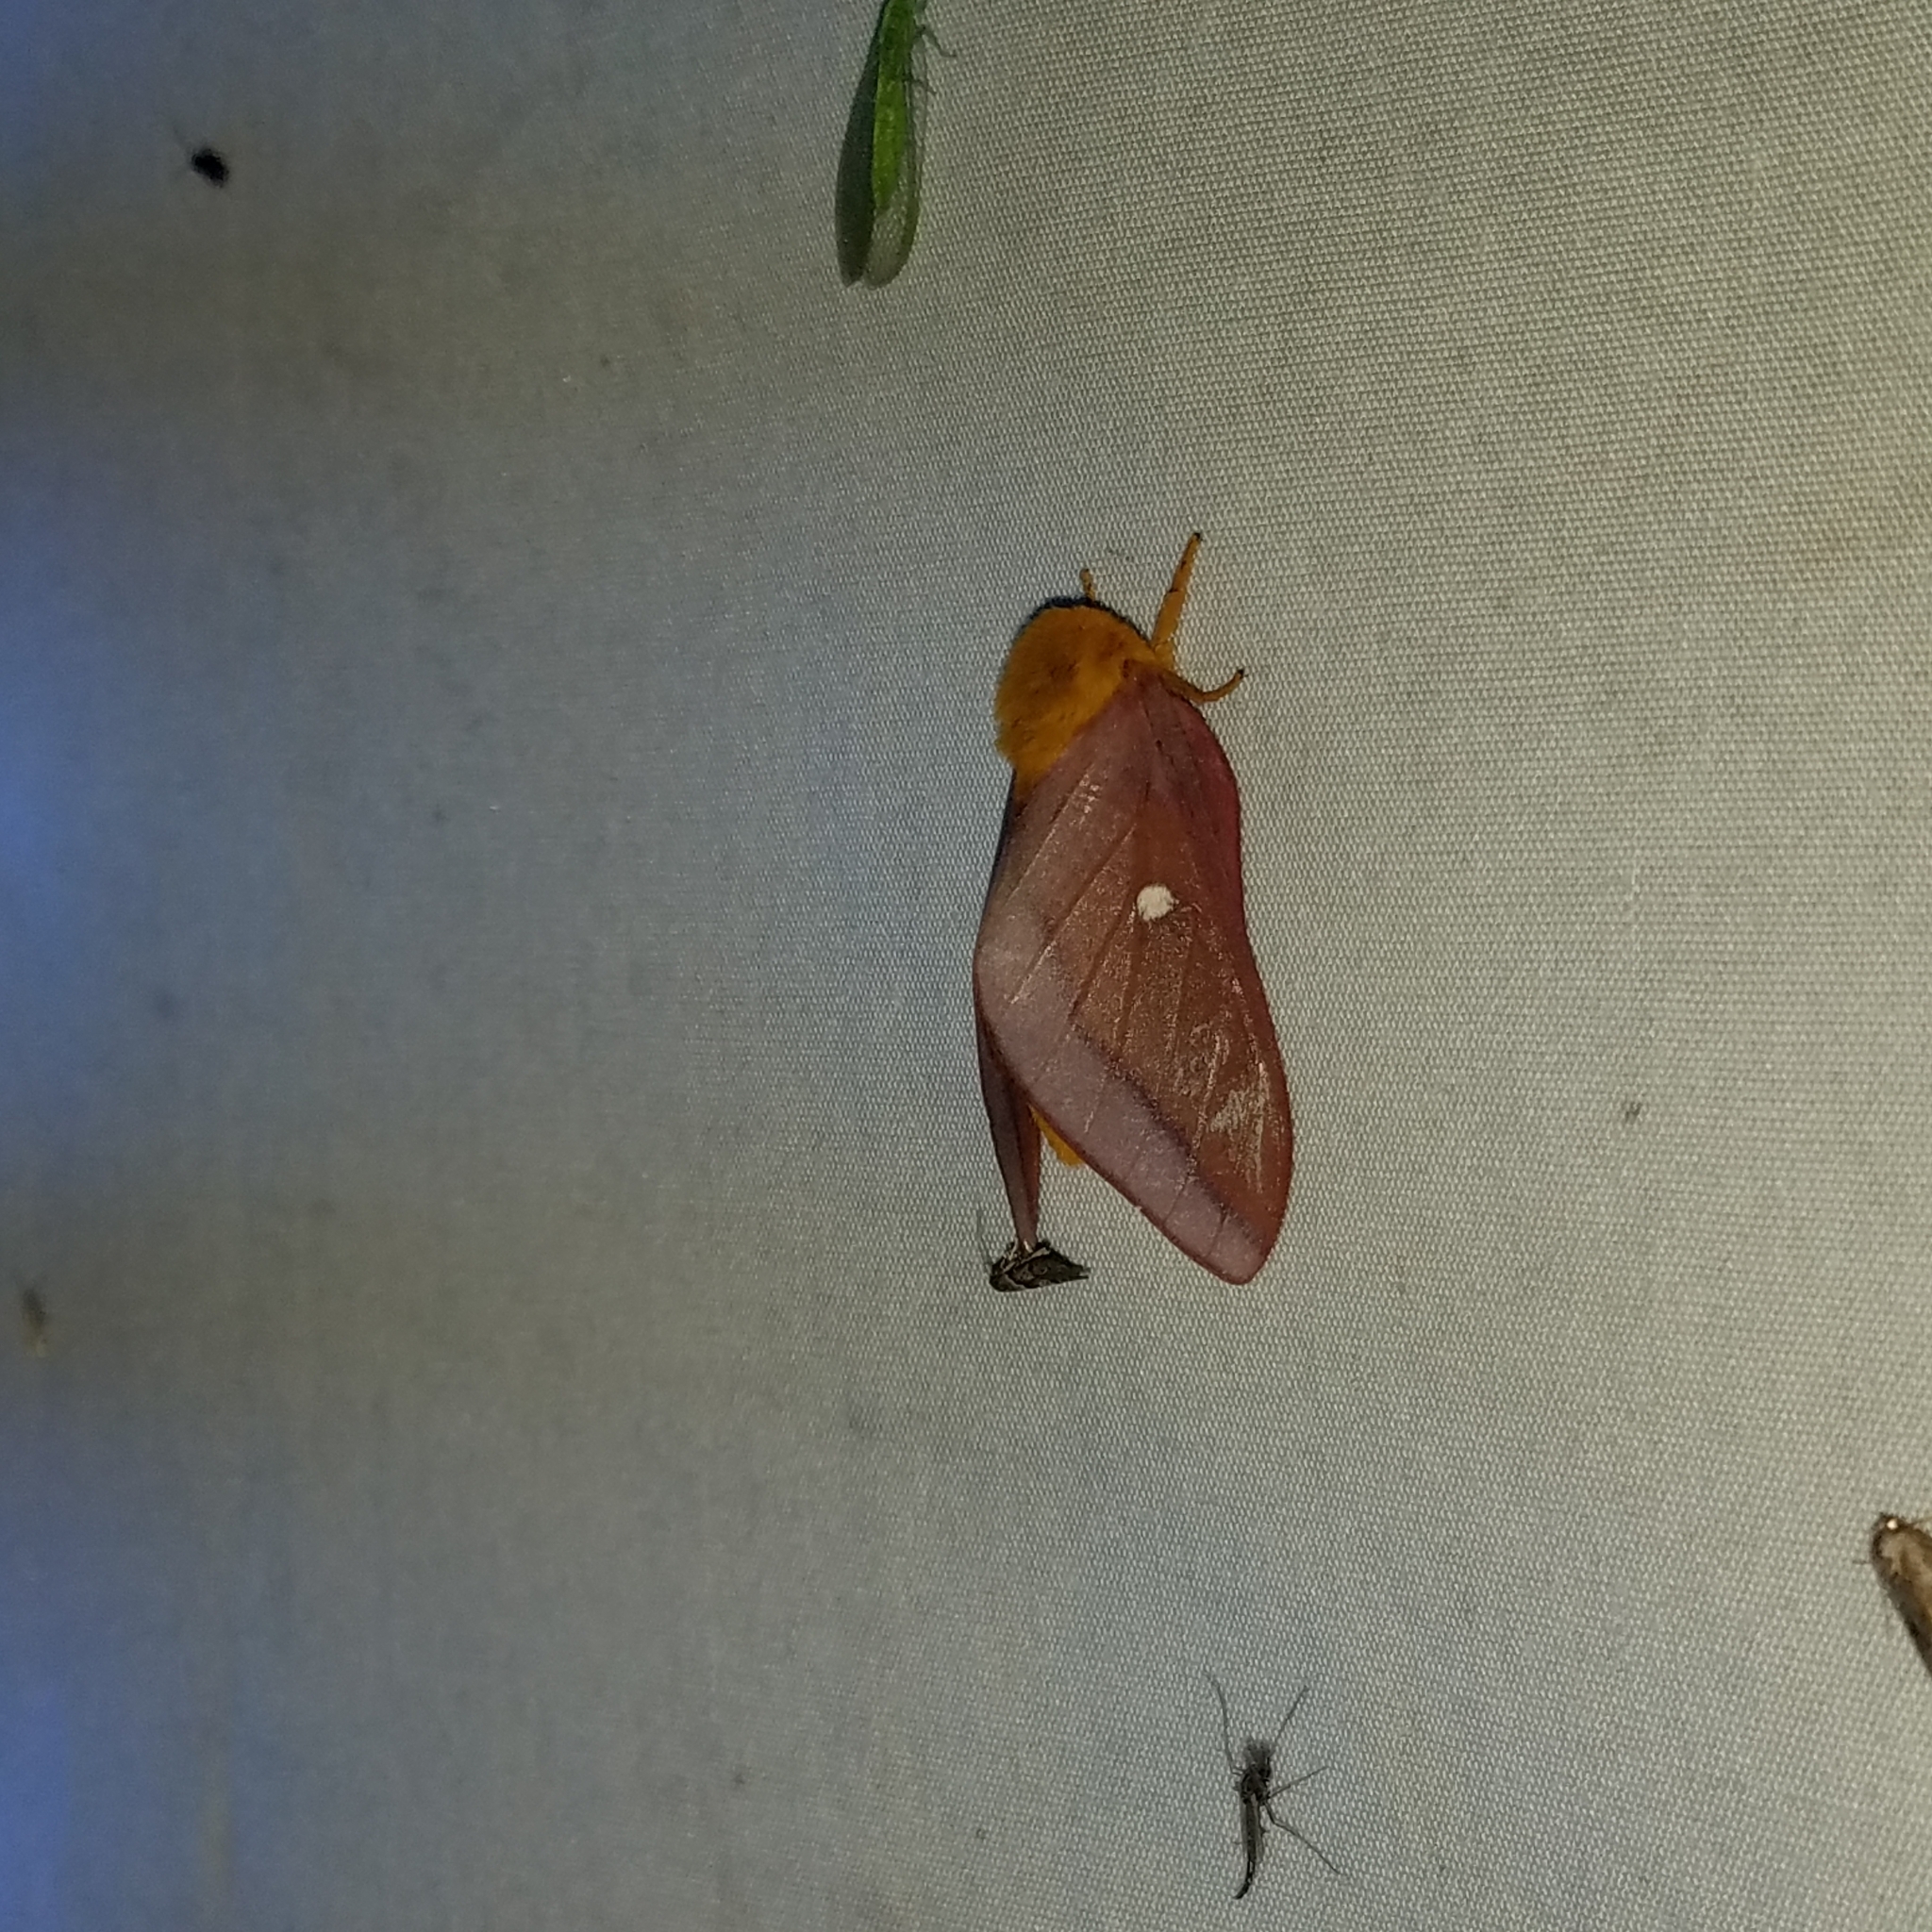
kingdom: Animalia
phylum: Arthropoda
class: Insecta
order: Lepidoptera
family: Saturniidae
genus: Anisota
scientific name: Anisota virginiensis
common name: Pink striped oakworm moth
